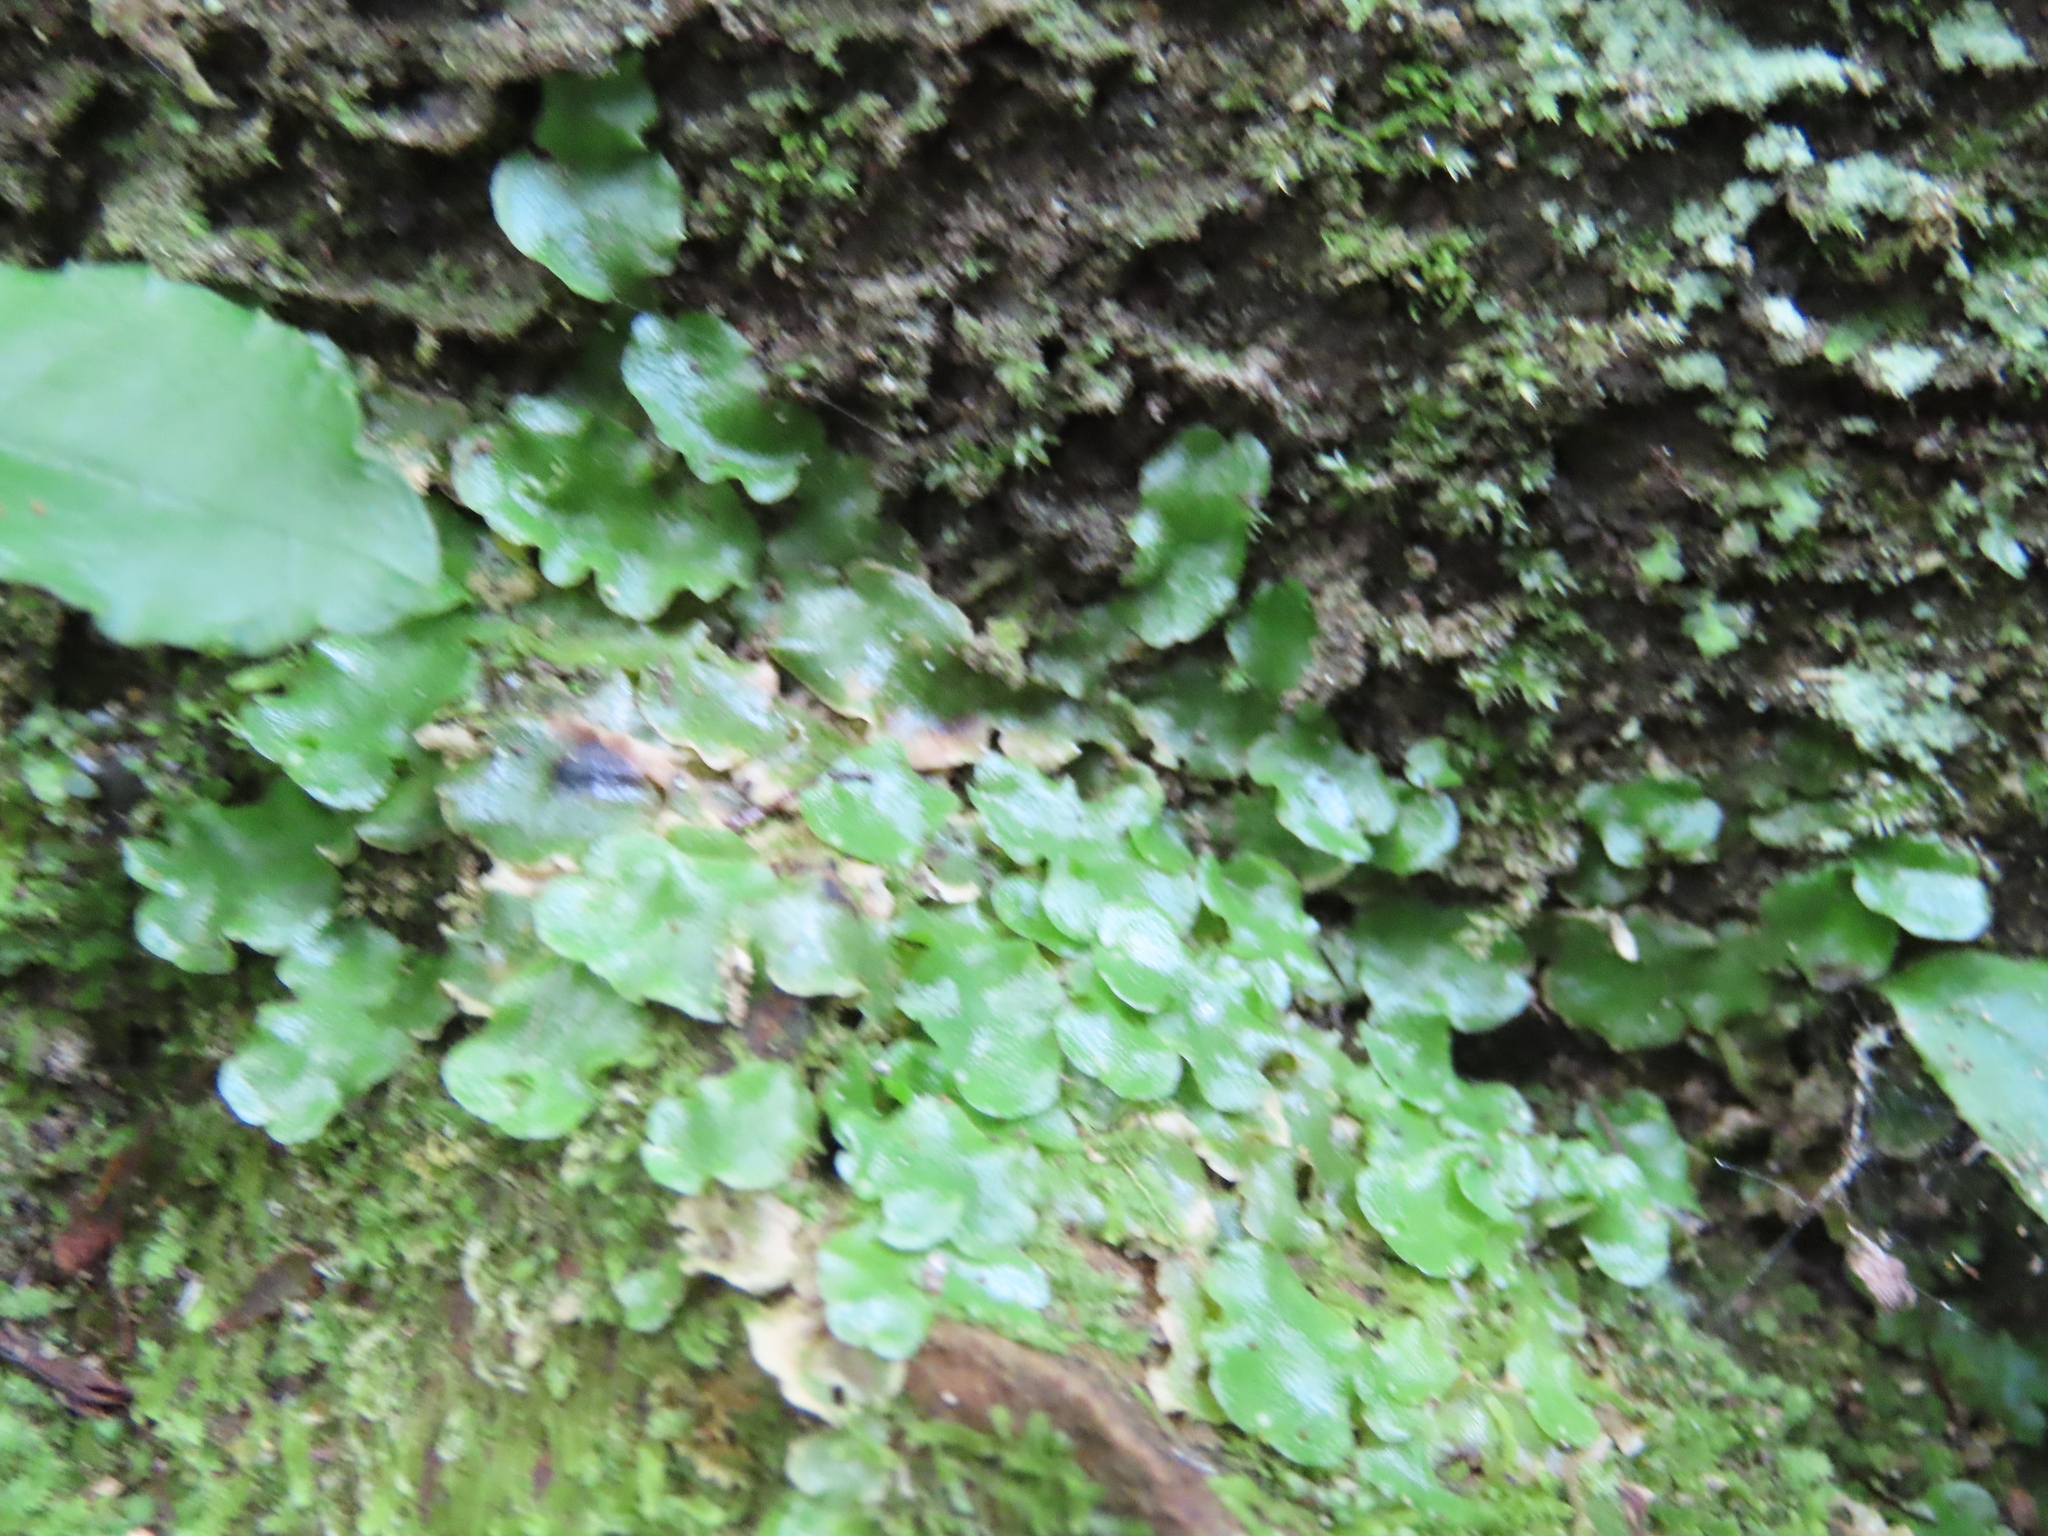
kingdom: Plantae
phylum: Marchantiophyta
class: Marchantiopsida
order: Lunulariales
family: Lunulariaceae
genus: Lunularia
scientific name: Lunularia cruciata
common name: Crescent-cup liverwort
